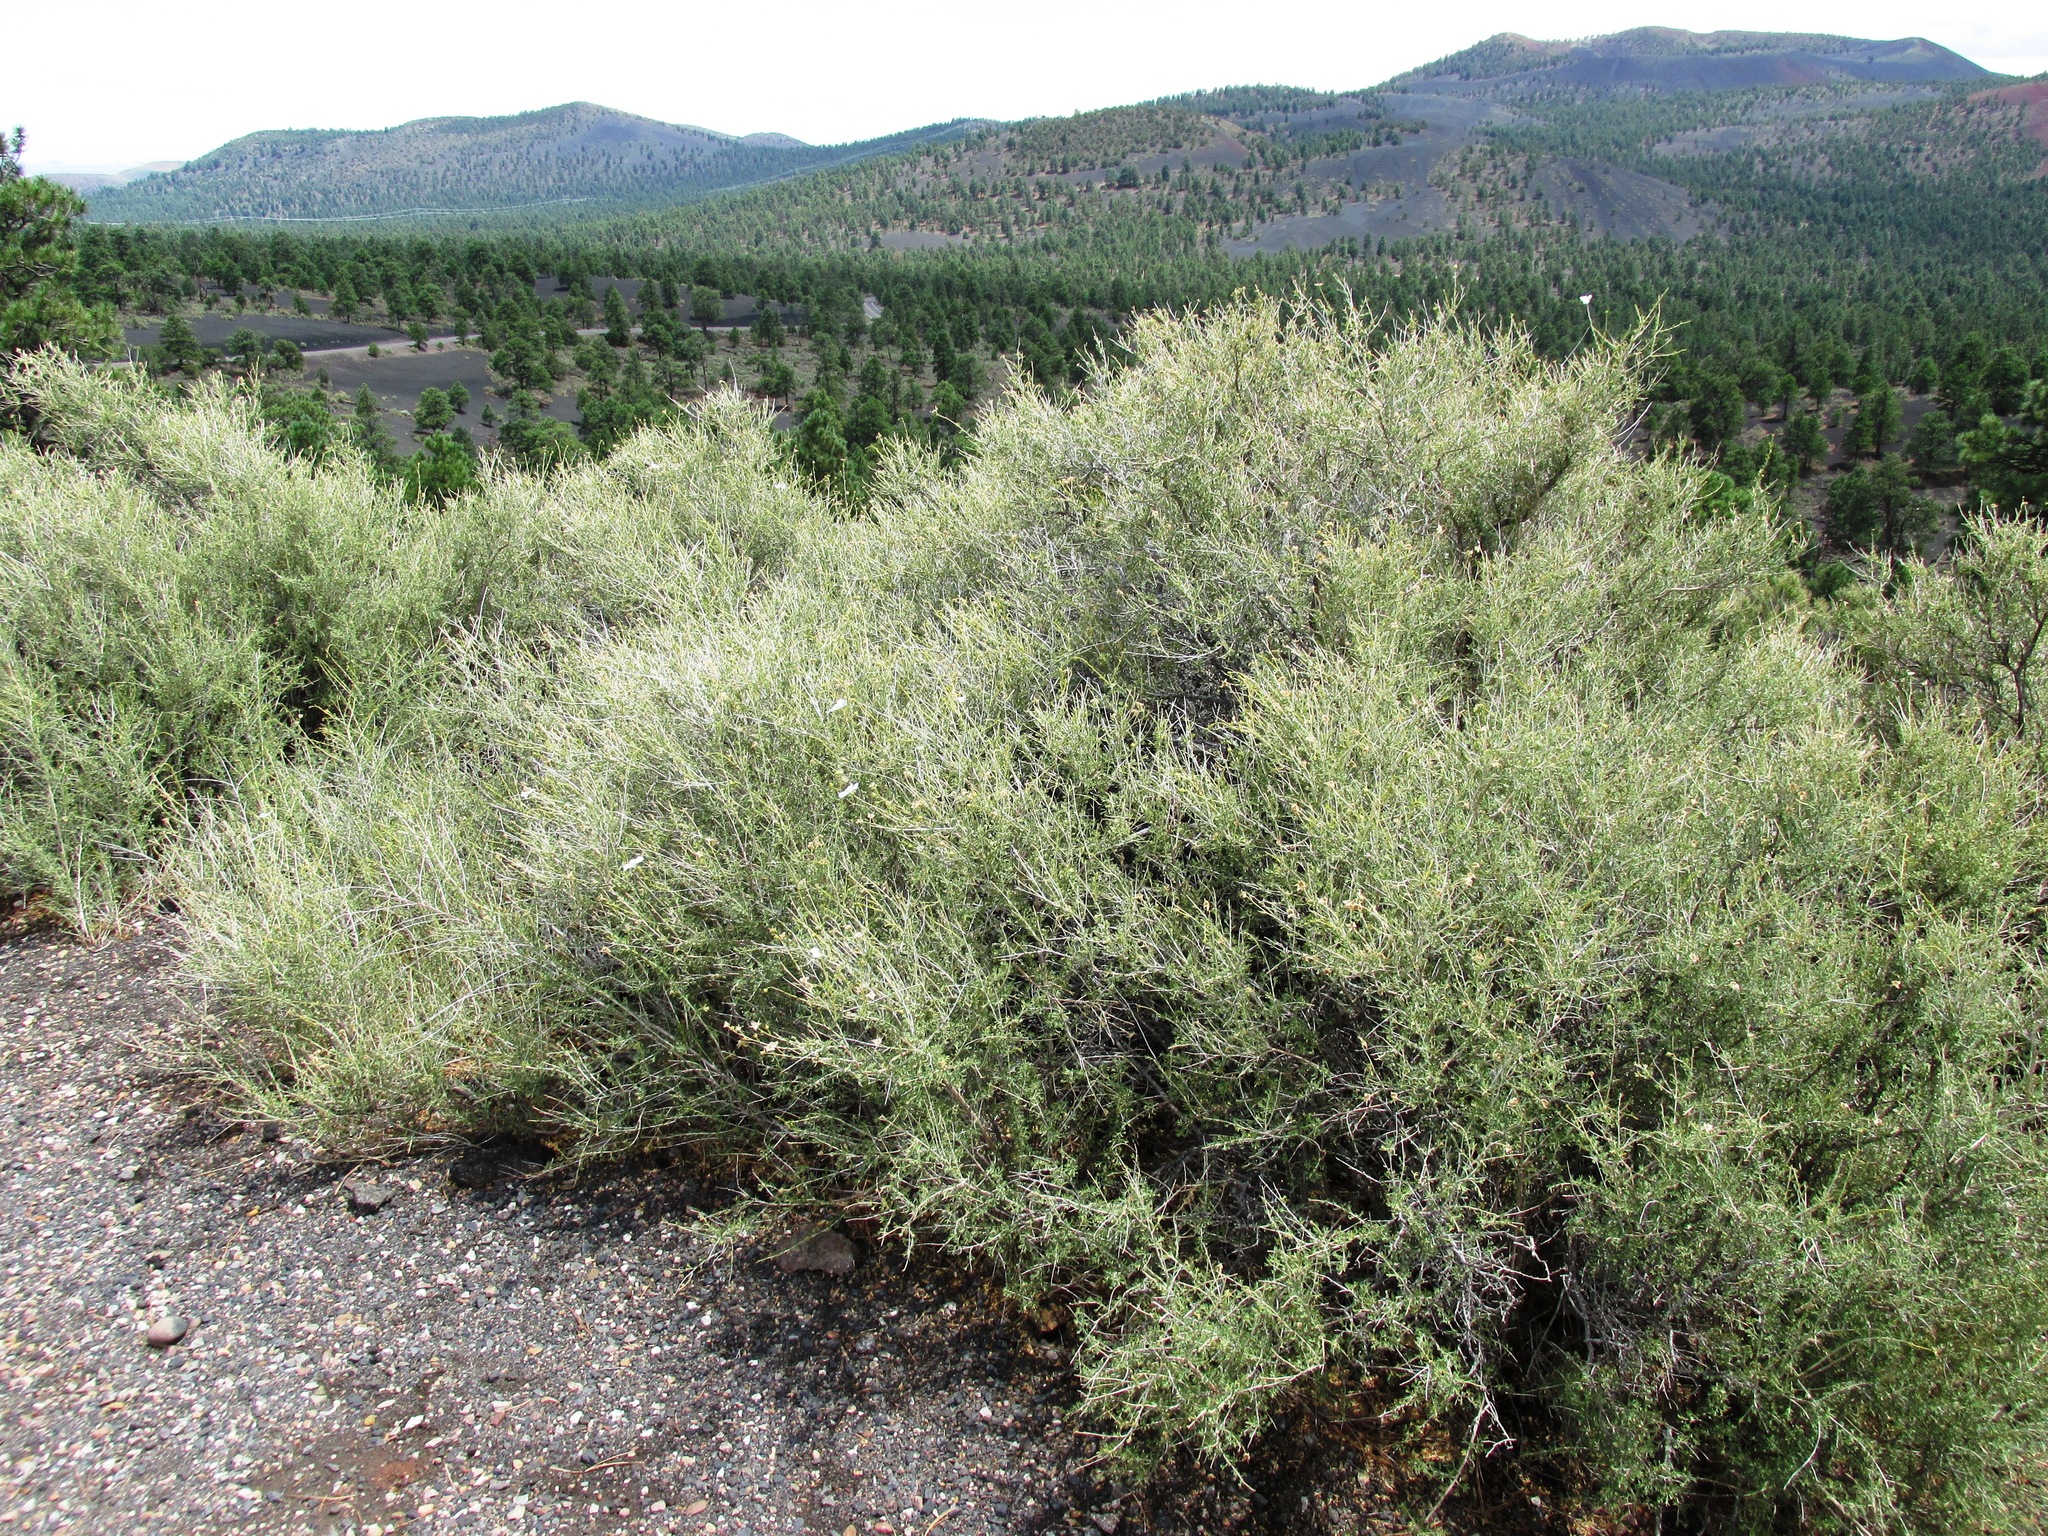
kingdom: Plantae
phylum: Tracheophyta
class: Magnoliopsida
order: Rosales
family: Rosaceae
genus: Fallugia
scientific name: Fallugia paradoxa
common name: Apache-plume
